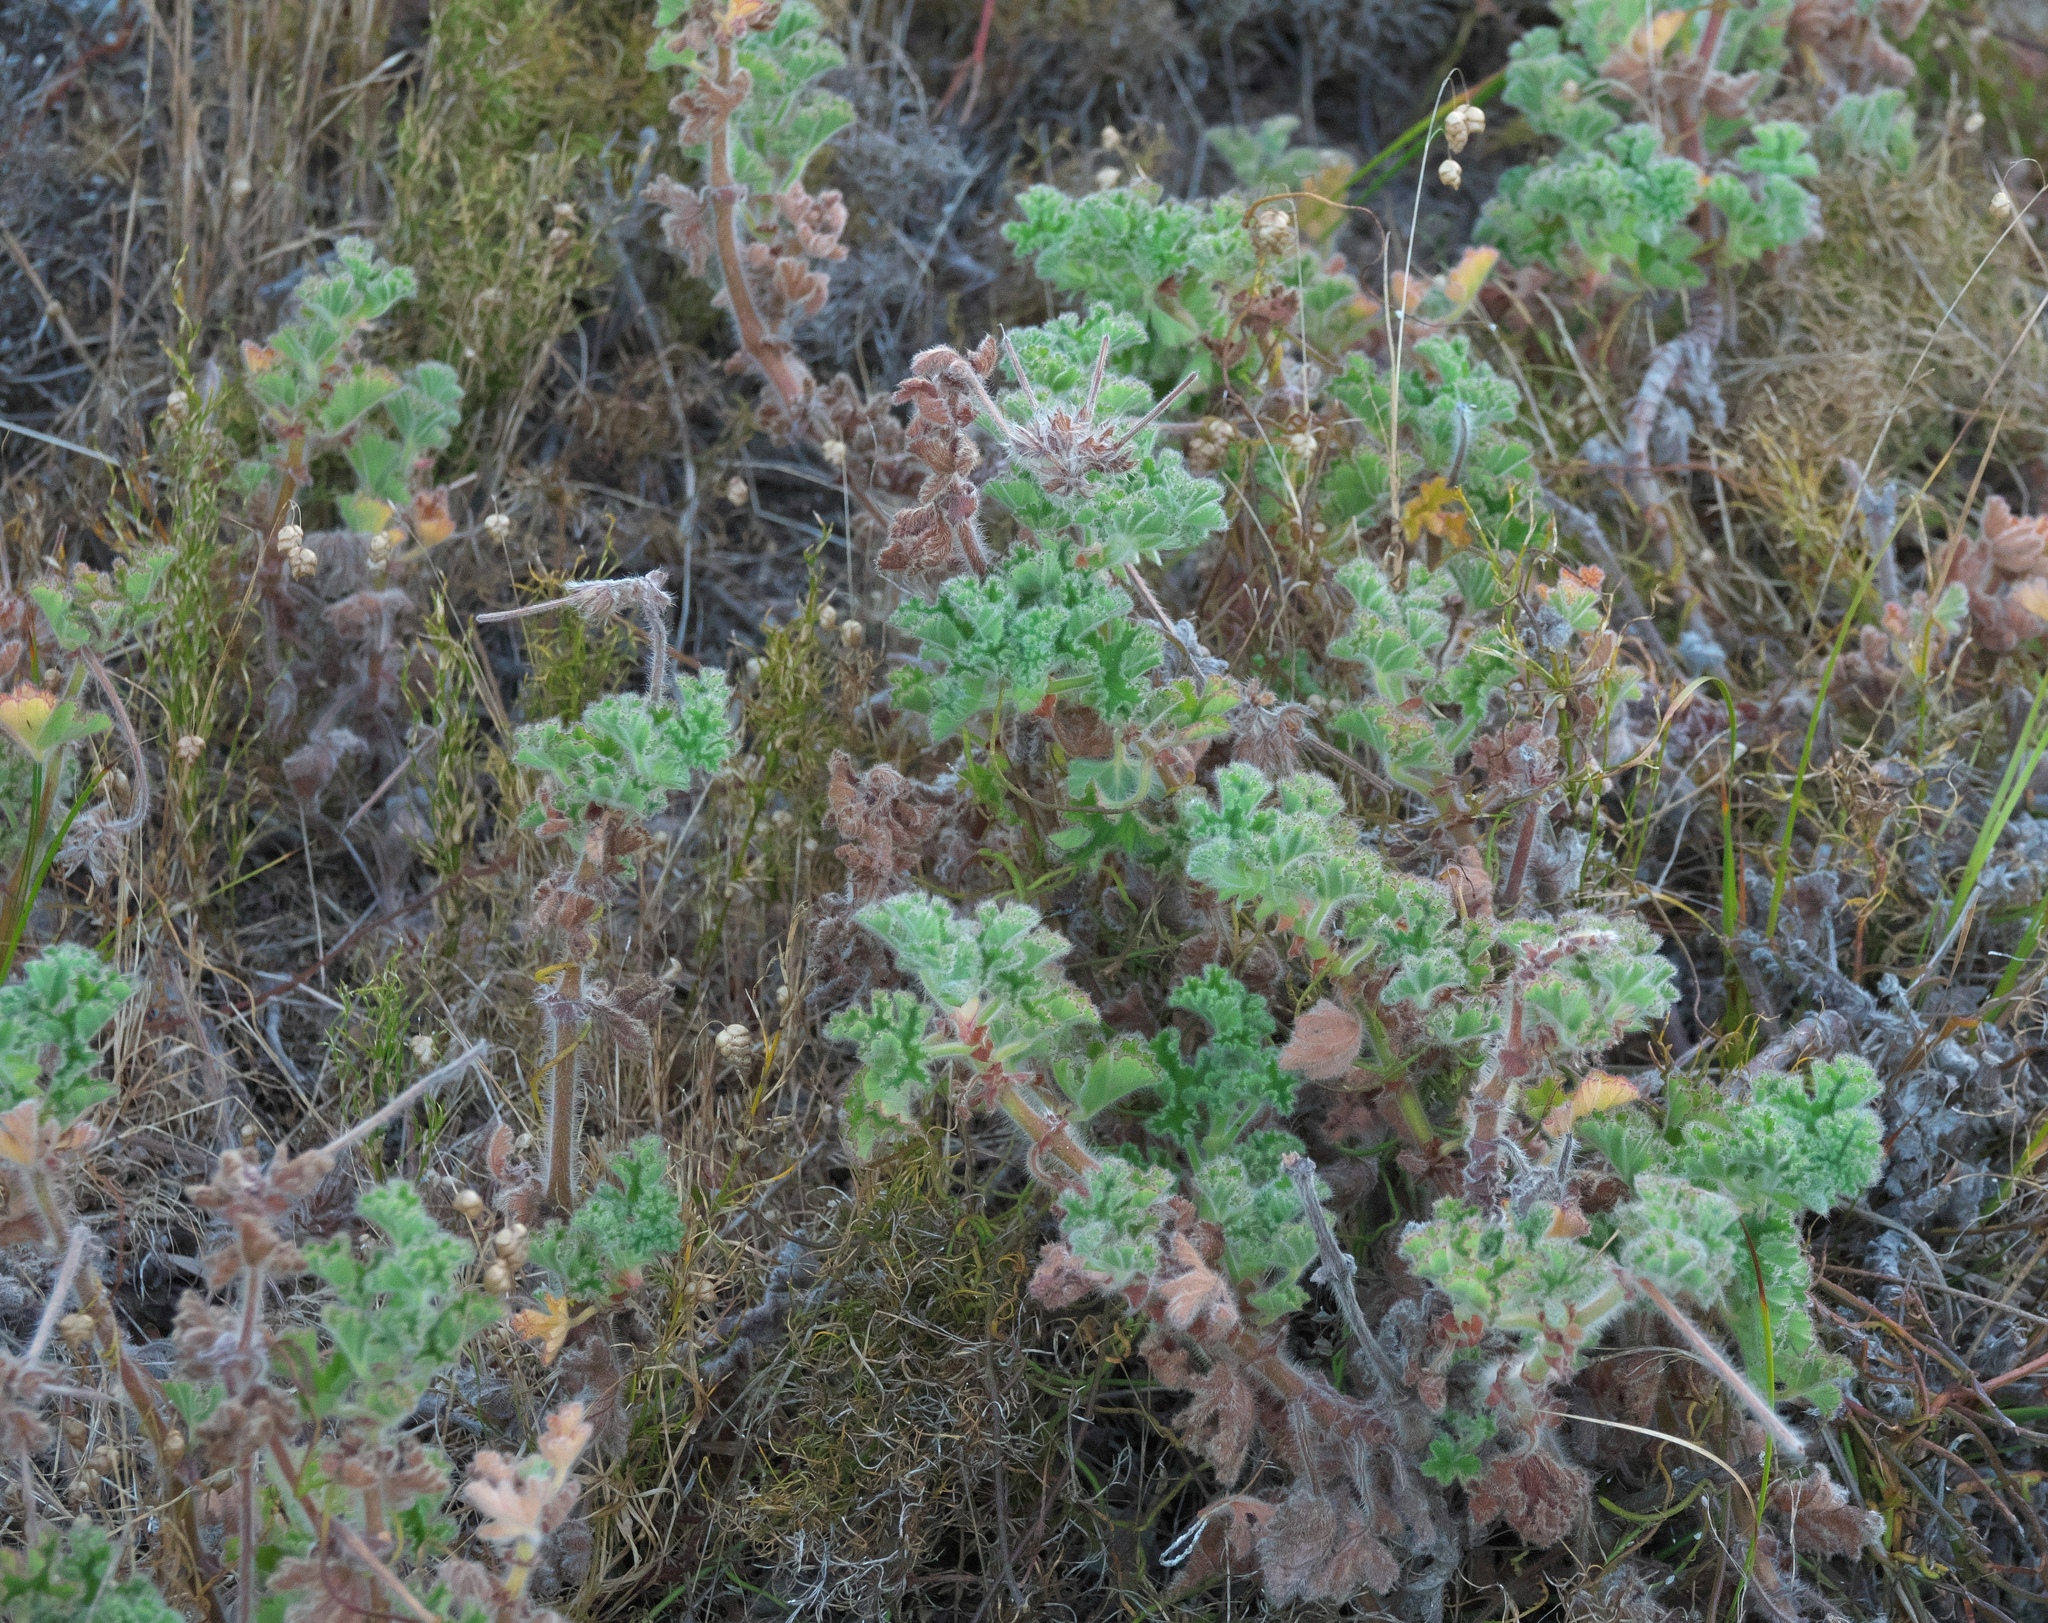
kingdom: Plantae
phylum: Tracheophyta
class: Magnoliopsida
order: Geraniales
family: Geraniaceae
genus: Pelargonium
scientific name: Pelargonium capitatum
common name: Rose scented geranium
